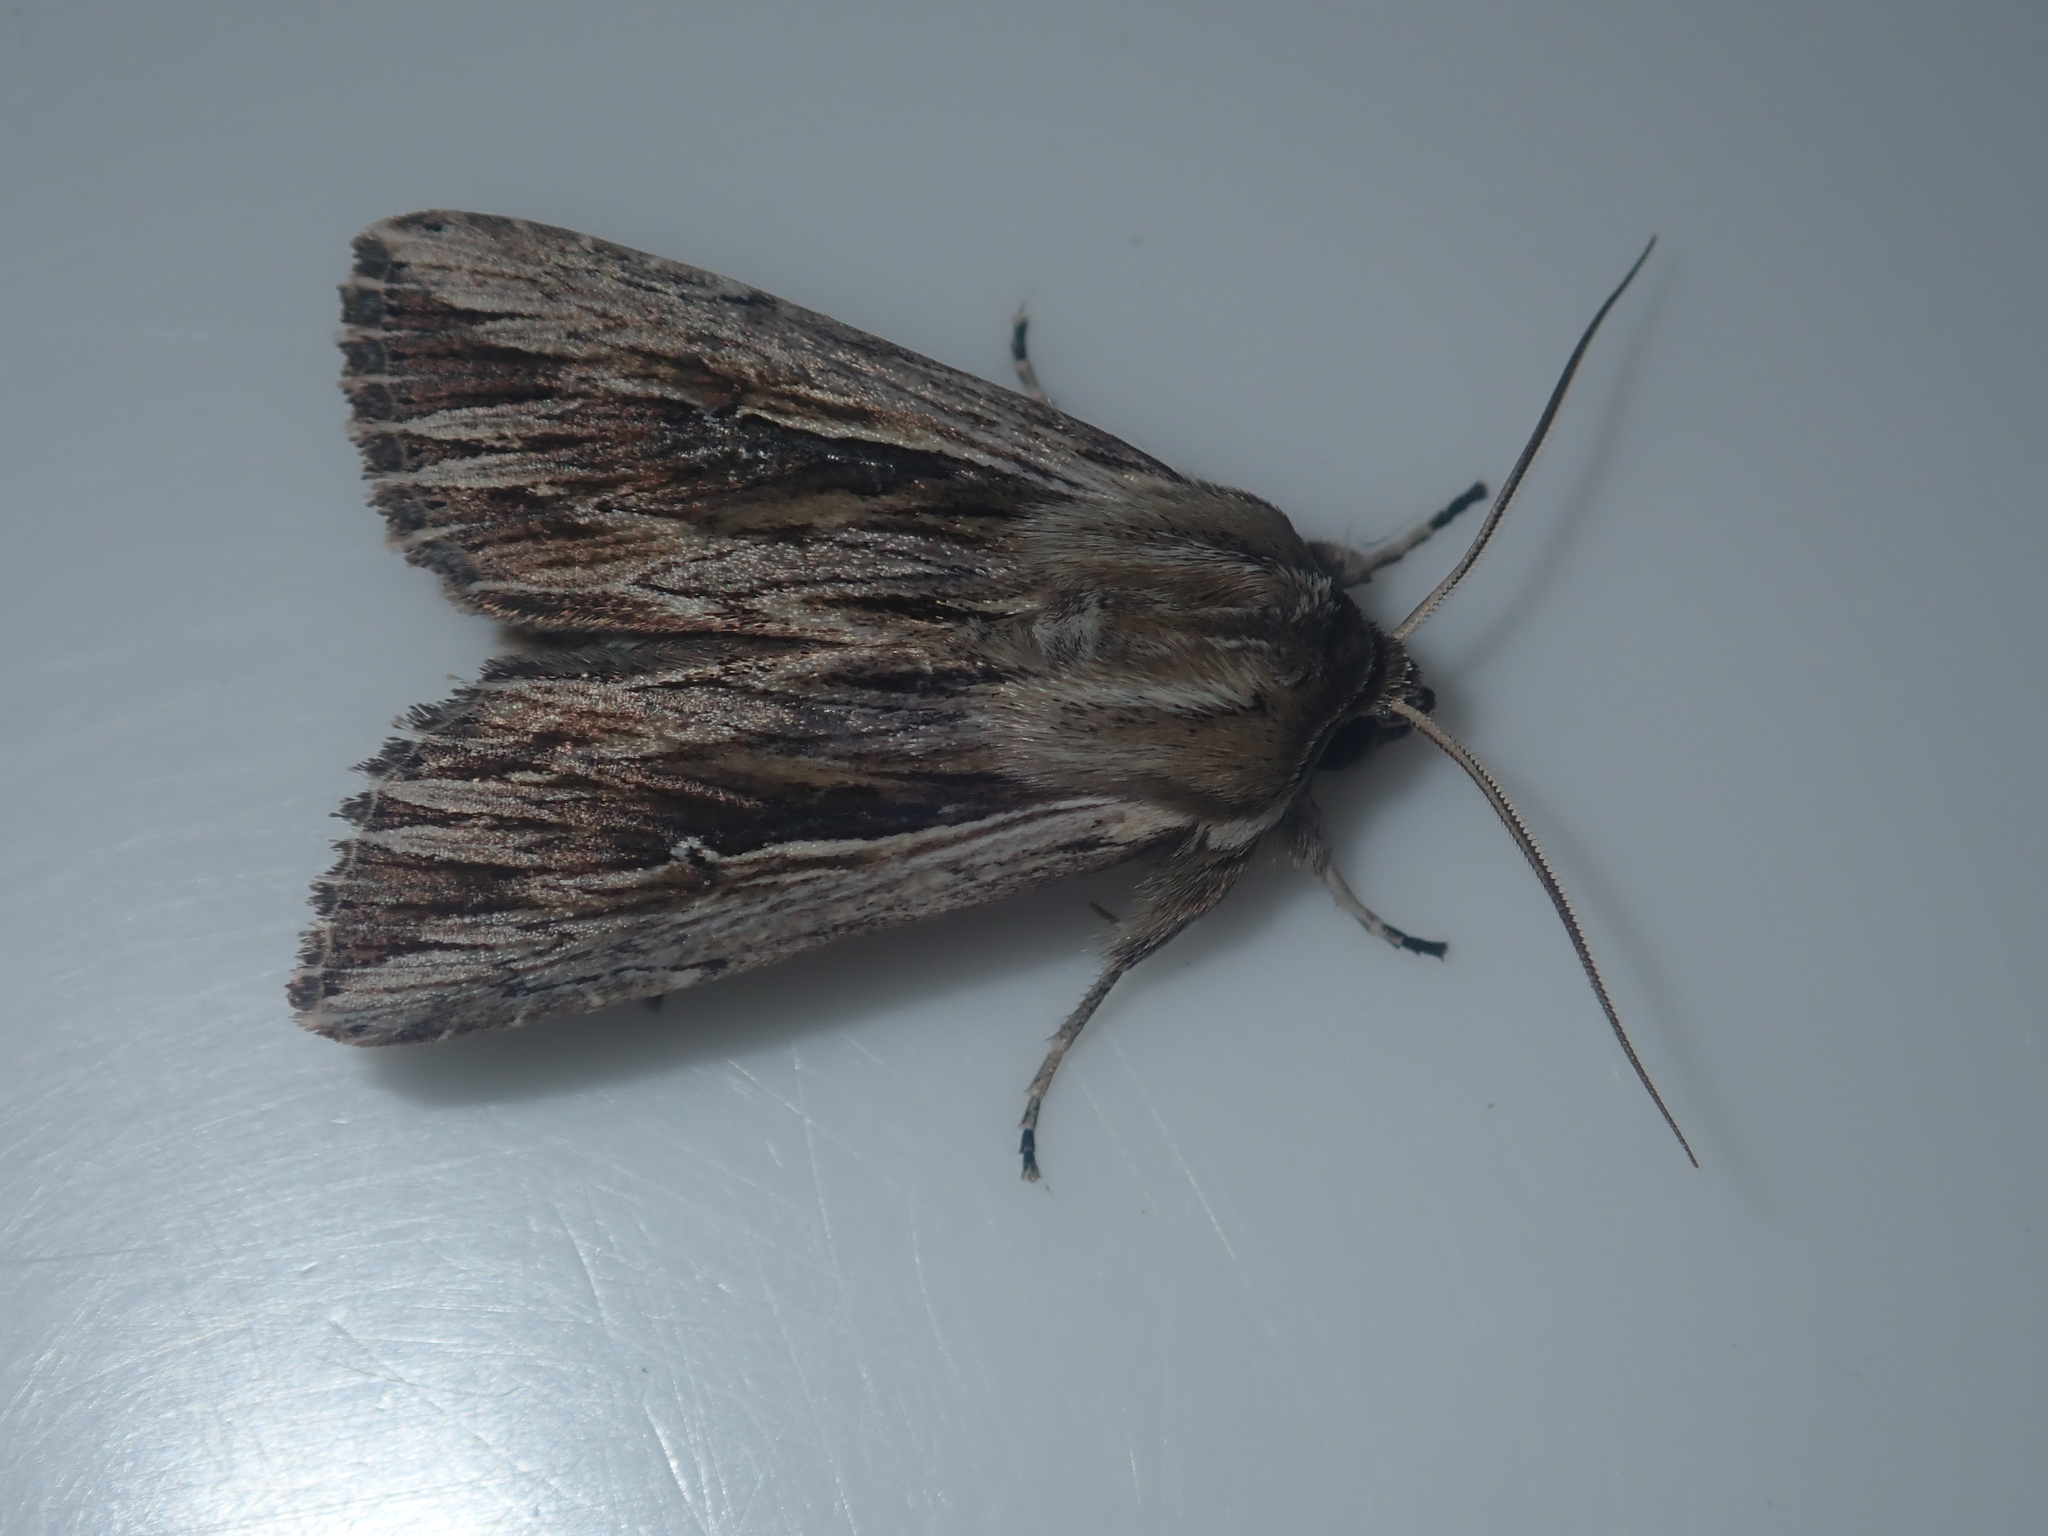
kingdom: Animalia
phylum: Arthropoda
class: Insecta
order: Lepidoptera
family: Noctuidae
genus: Persectania
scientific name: Persectania aversa
